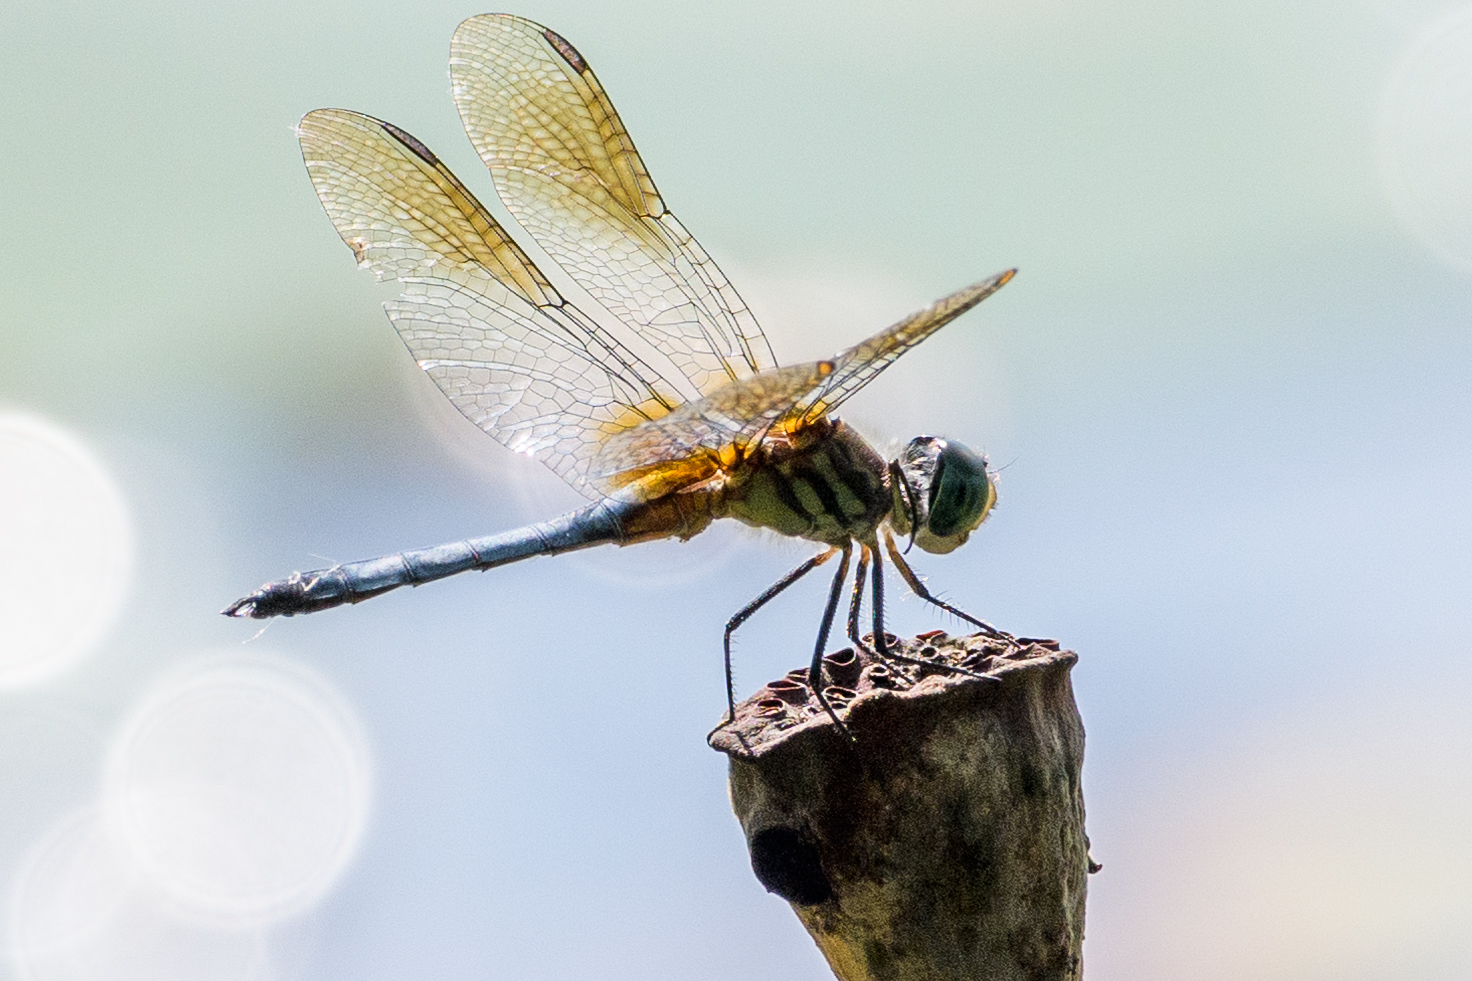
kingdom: Animalia
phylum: Arthropoda
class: Insecta
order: Odonata
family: Libellulidae
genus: Pachydiplax
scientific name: Pachydiplax longipennis
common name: Blue dasher
